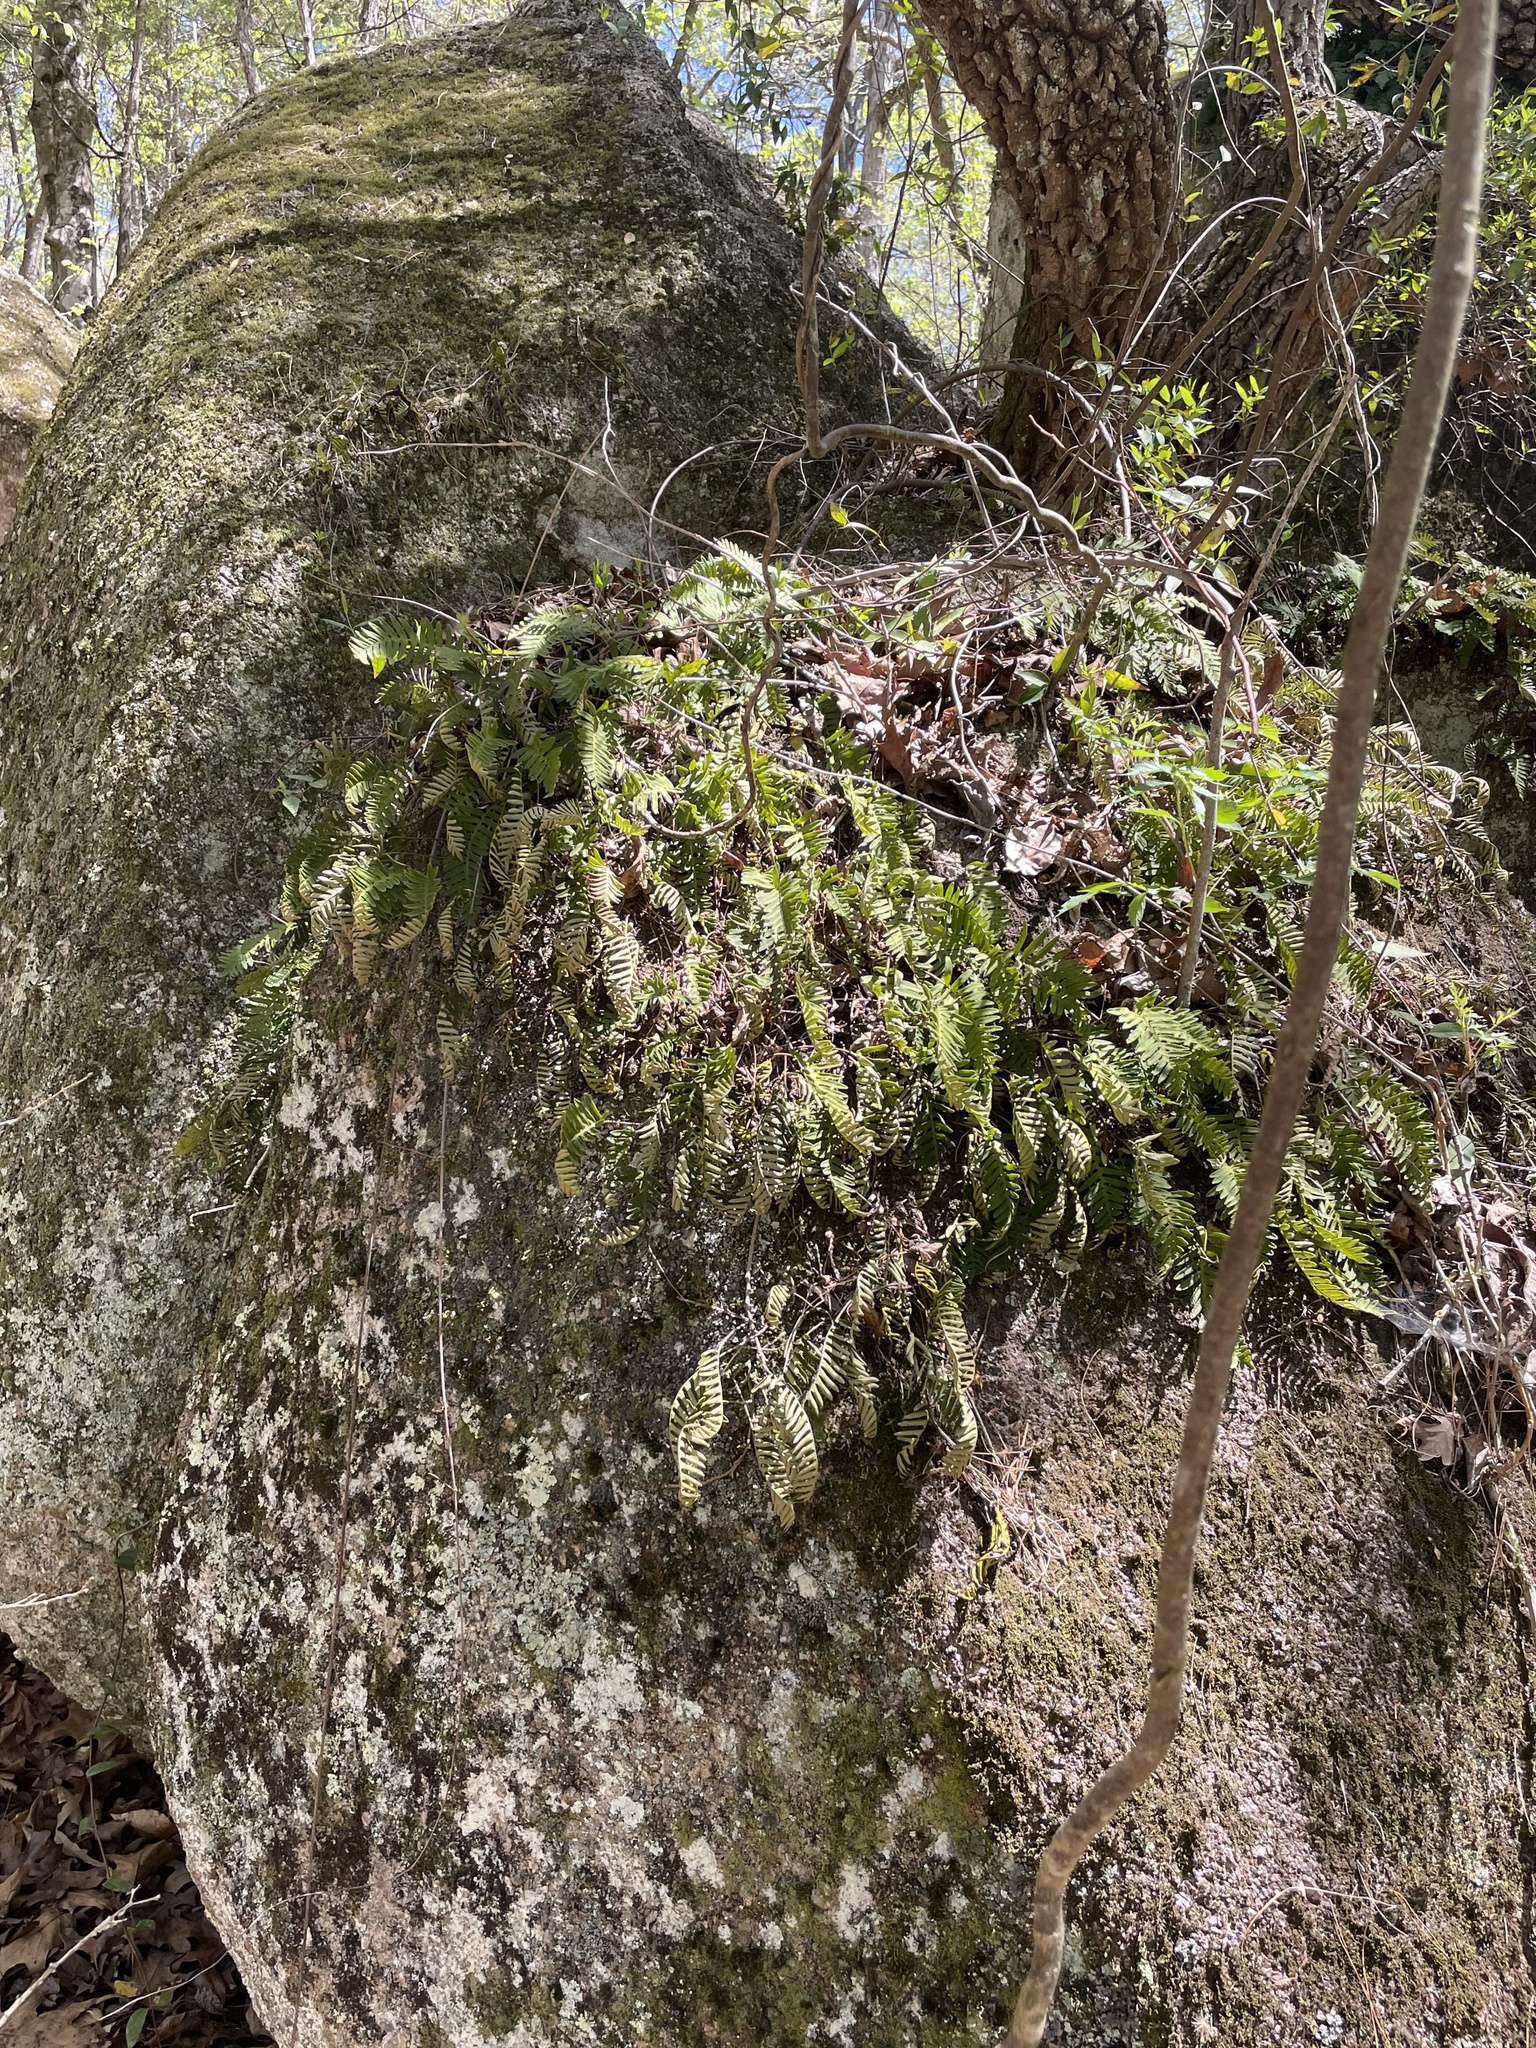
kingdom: Plantae
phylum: Tracheophyta
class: Polypodiopsida
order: Polypodiales
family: Polypodiaceae
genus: Pleopeltis
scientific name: Pleopeltis michauxiana
